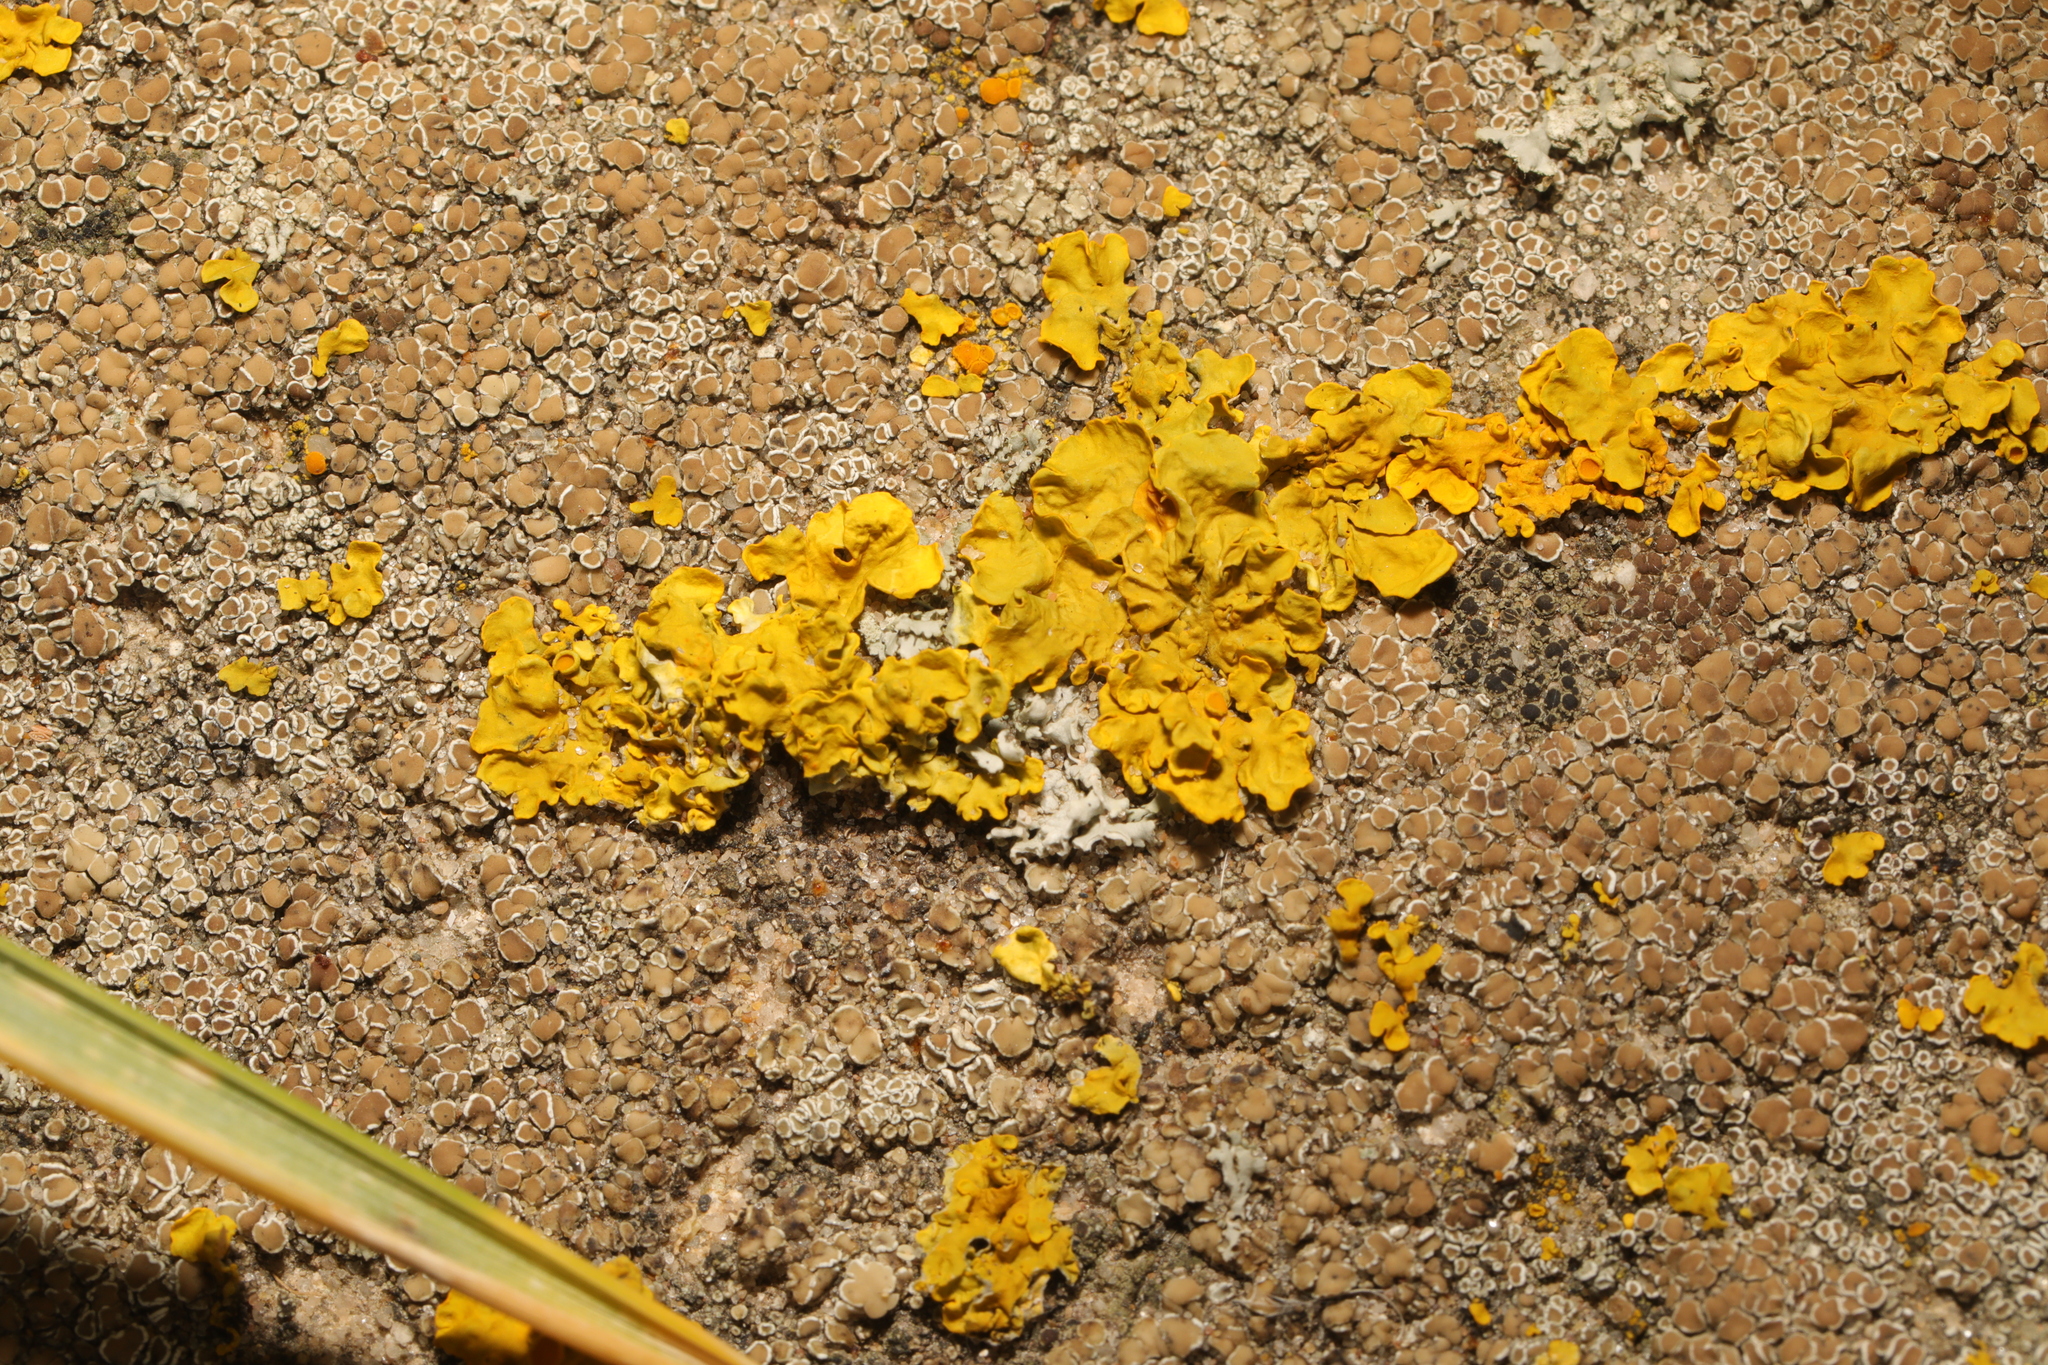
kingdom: Fungi
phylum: Ascomycota
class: Lecanoromycetes
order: Teloschistales
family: Teloschistaceae
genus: Xanthoria
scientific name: Xanthoria parietina
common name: Common orange lichen
